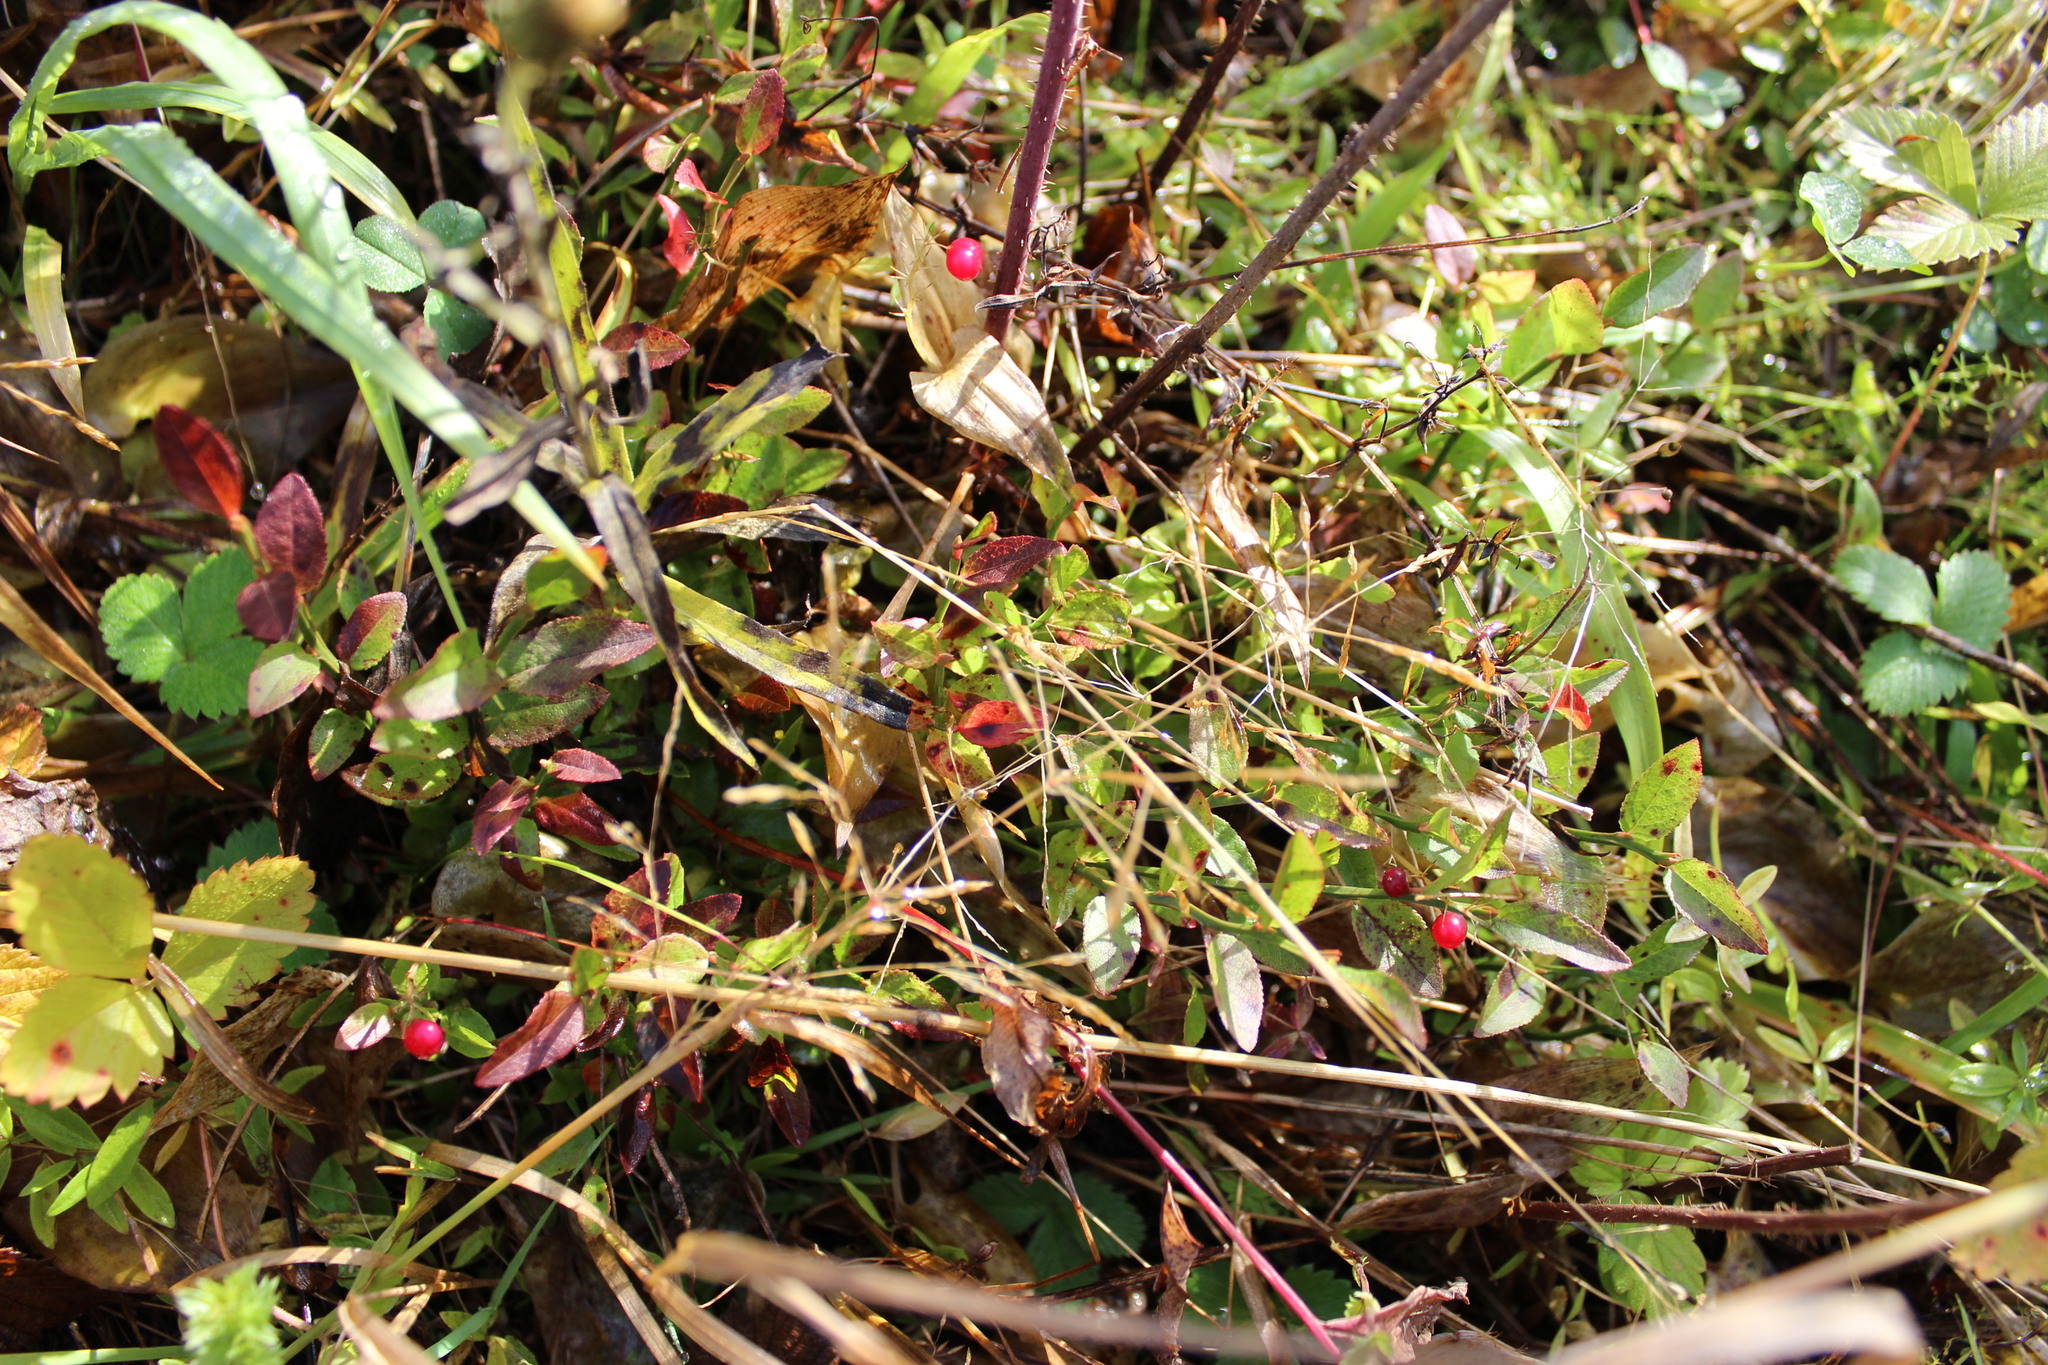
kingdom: Plantae
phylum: Tracheophyta
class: Liliopsida
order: Asparagales
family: Asparagaceae
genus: Maianthemum
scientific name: Maianthemum bifolium
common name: May lily
